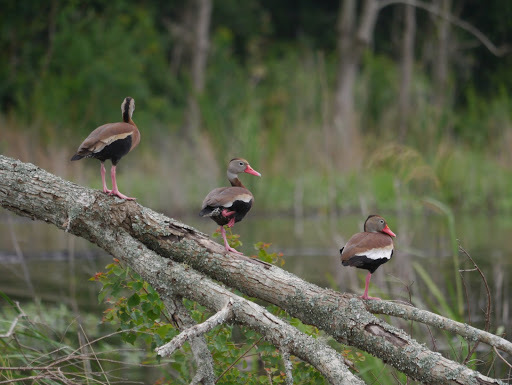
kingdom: Animalia
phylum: Chordata
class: Aves
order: Anseriformes
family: Anatidae
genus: Dendrocygna
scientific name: Dendrocygna autumnalis
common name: Black-bellied whistling duck
